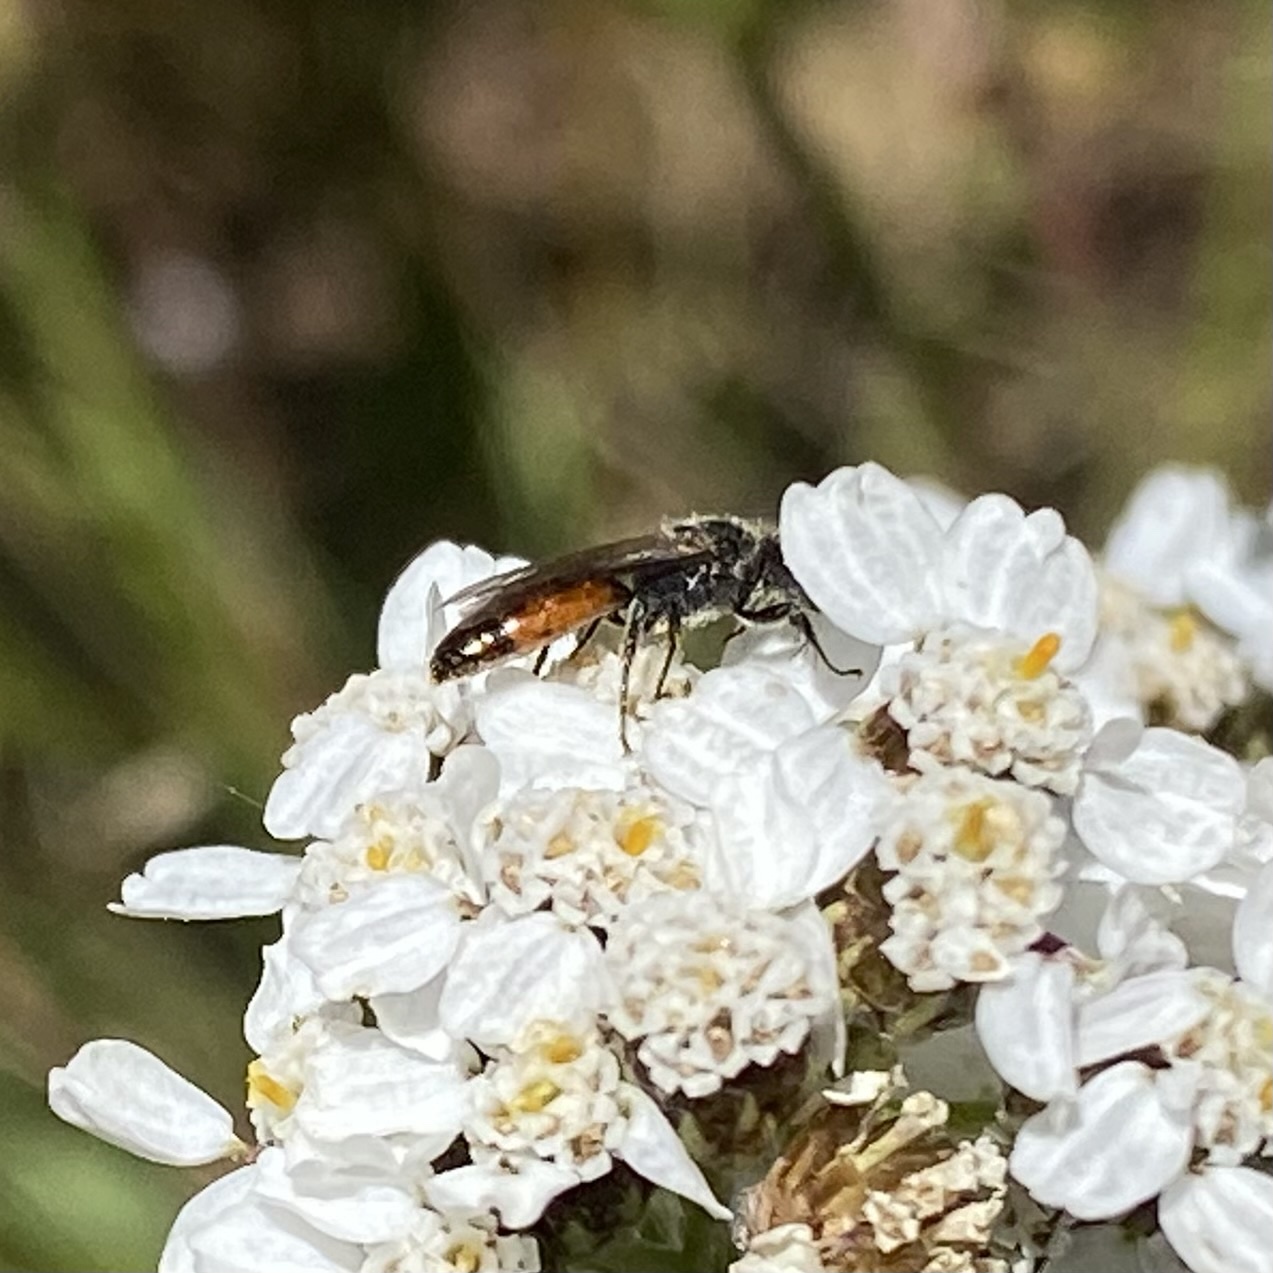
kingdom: Animalia
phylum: Arthropoda
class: Insecta
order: Hymenoptera
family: Halictidae
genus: Sphecodes
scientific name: Sphecodes
